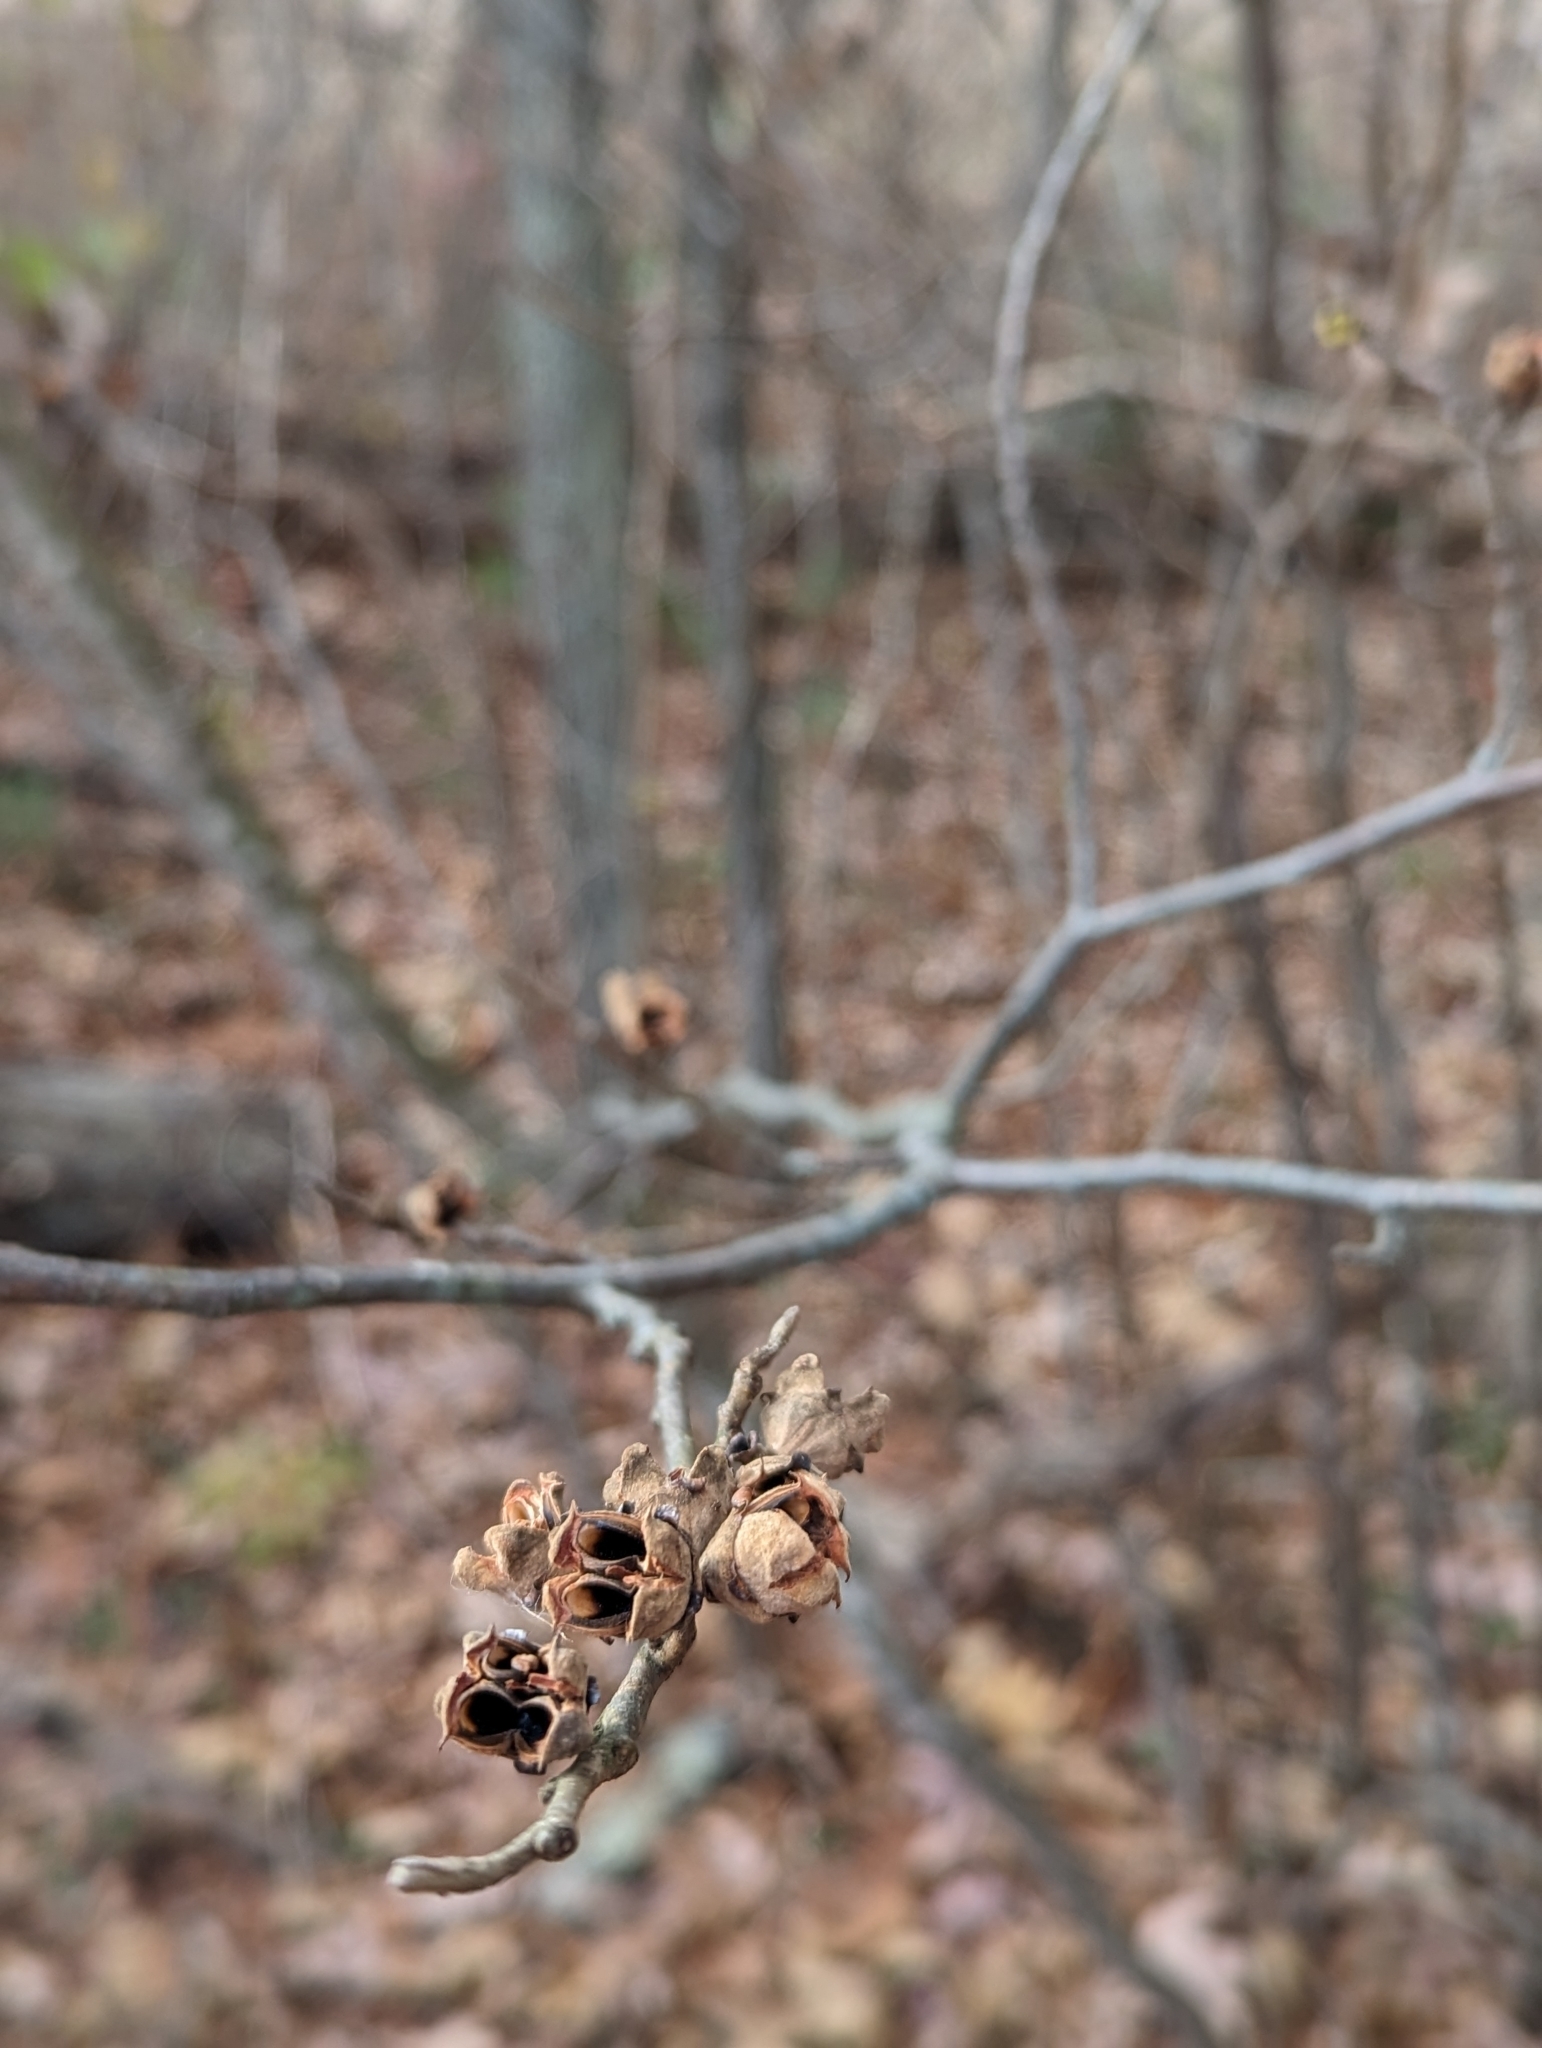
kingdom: Plantae
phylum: Tracheophyta
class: Magnoliopsida
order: Saxifragales
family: Hamamelidaceae
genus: Hamamelis
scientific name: Hamamelis virginiana
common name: Witch-hazel
